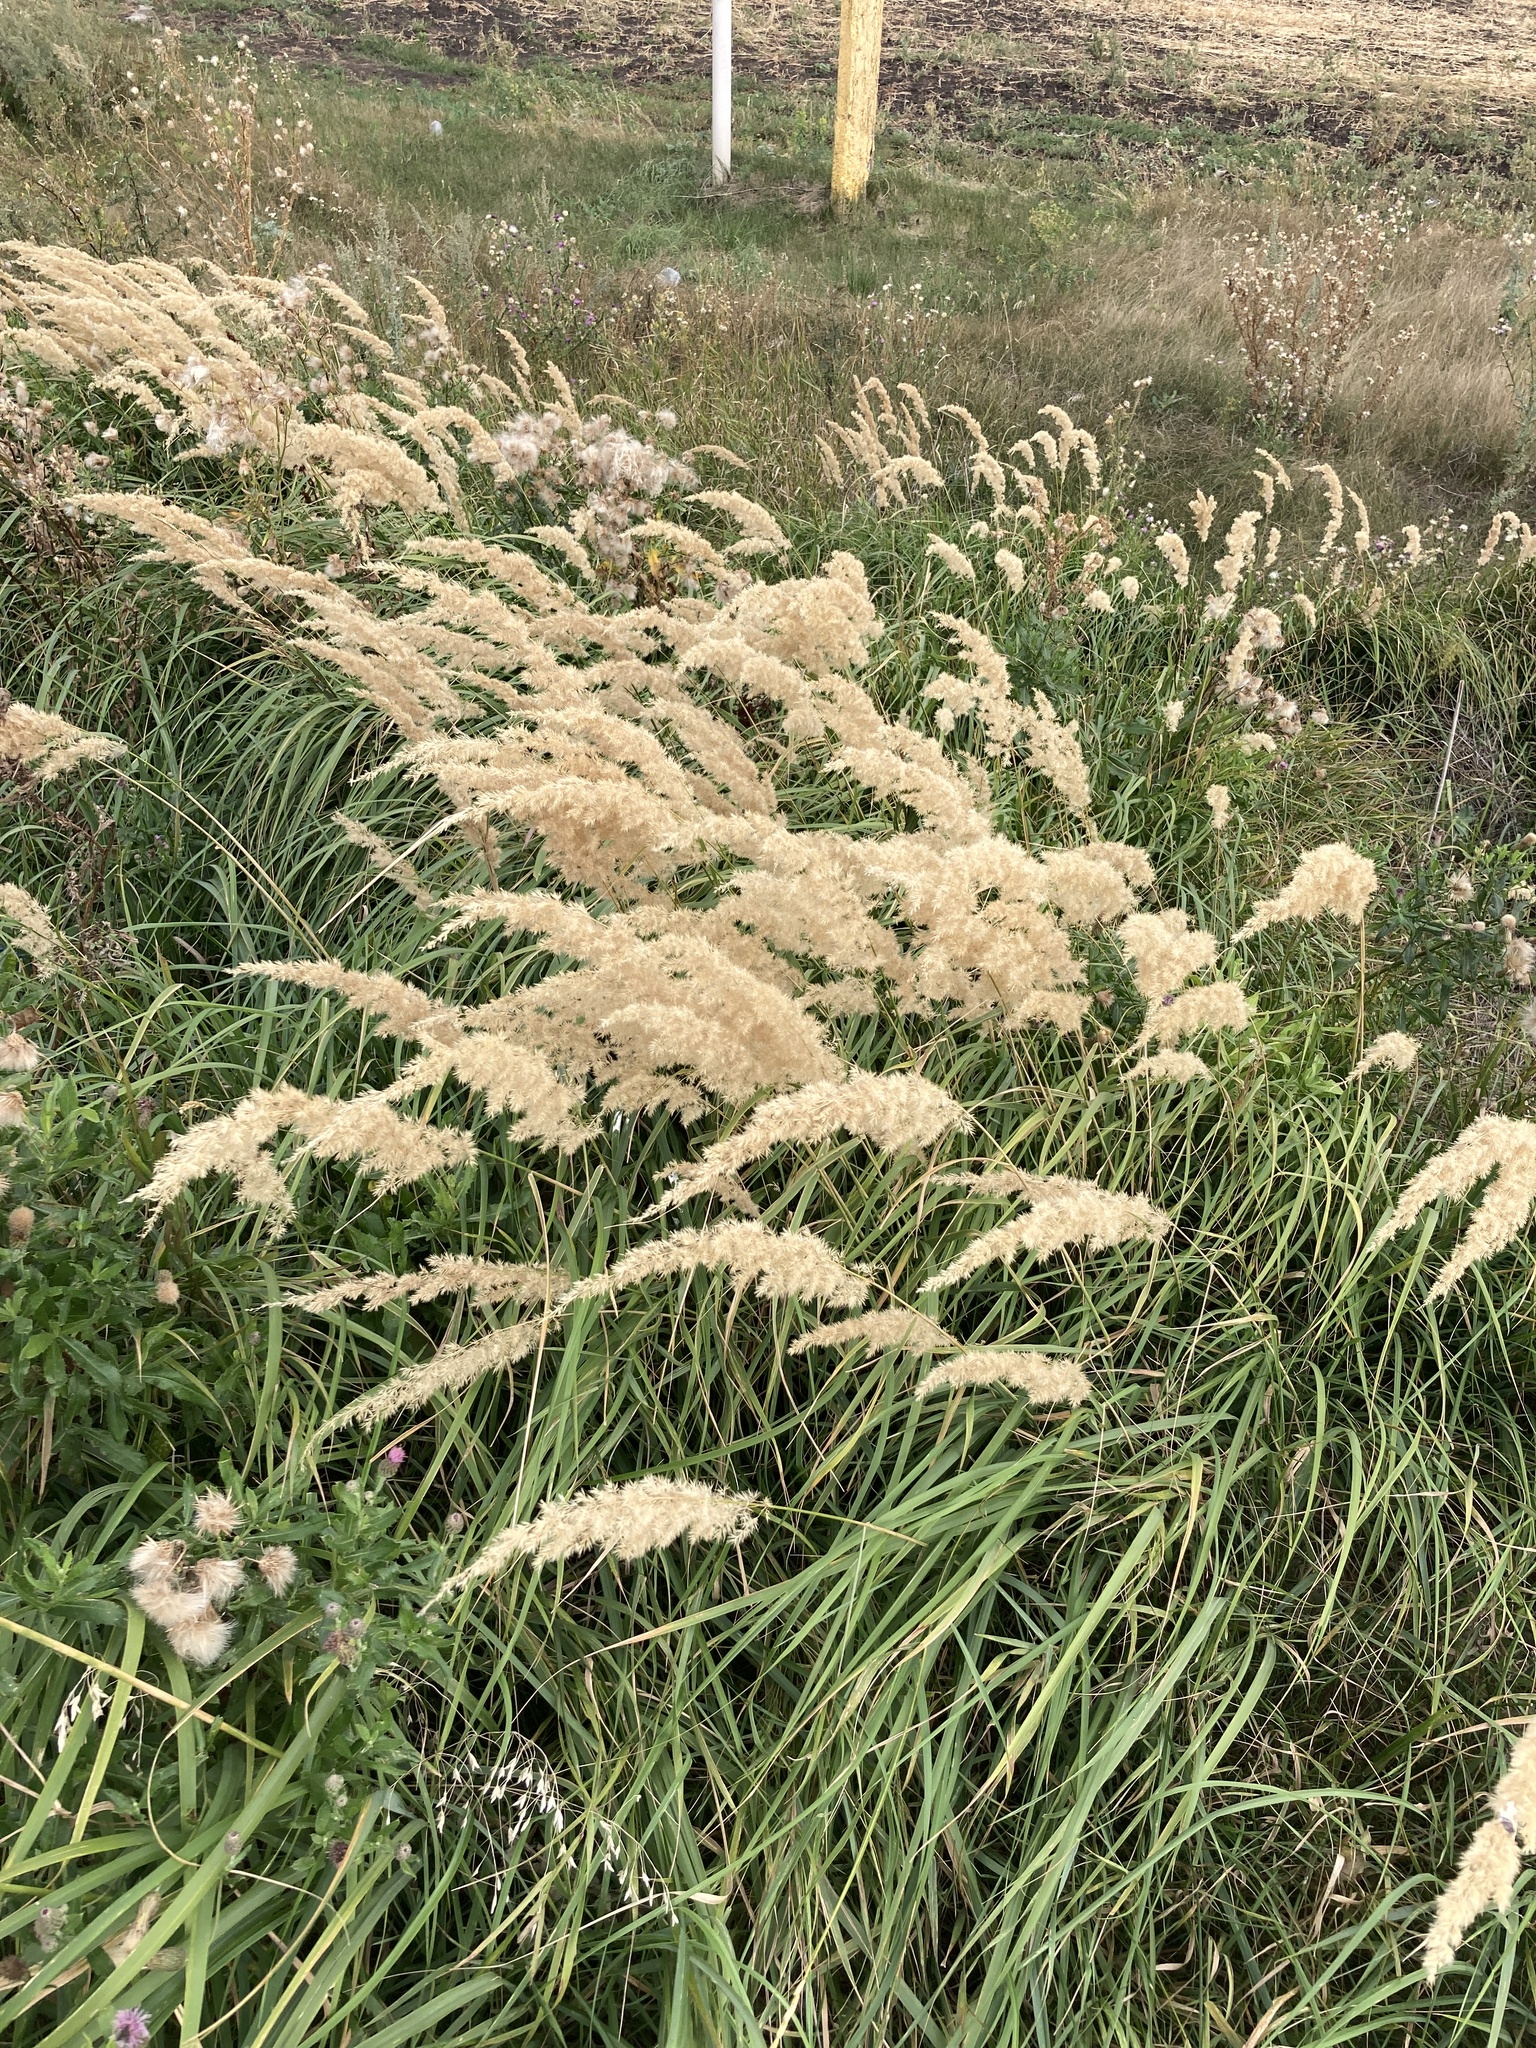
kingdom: Plantae
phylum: Tracheophyta
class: Liliopsida
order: Poales
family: Poaceae
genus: Calamagrostis
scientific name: Calamagrostis epigejos
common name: Wood small-reed
